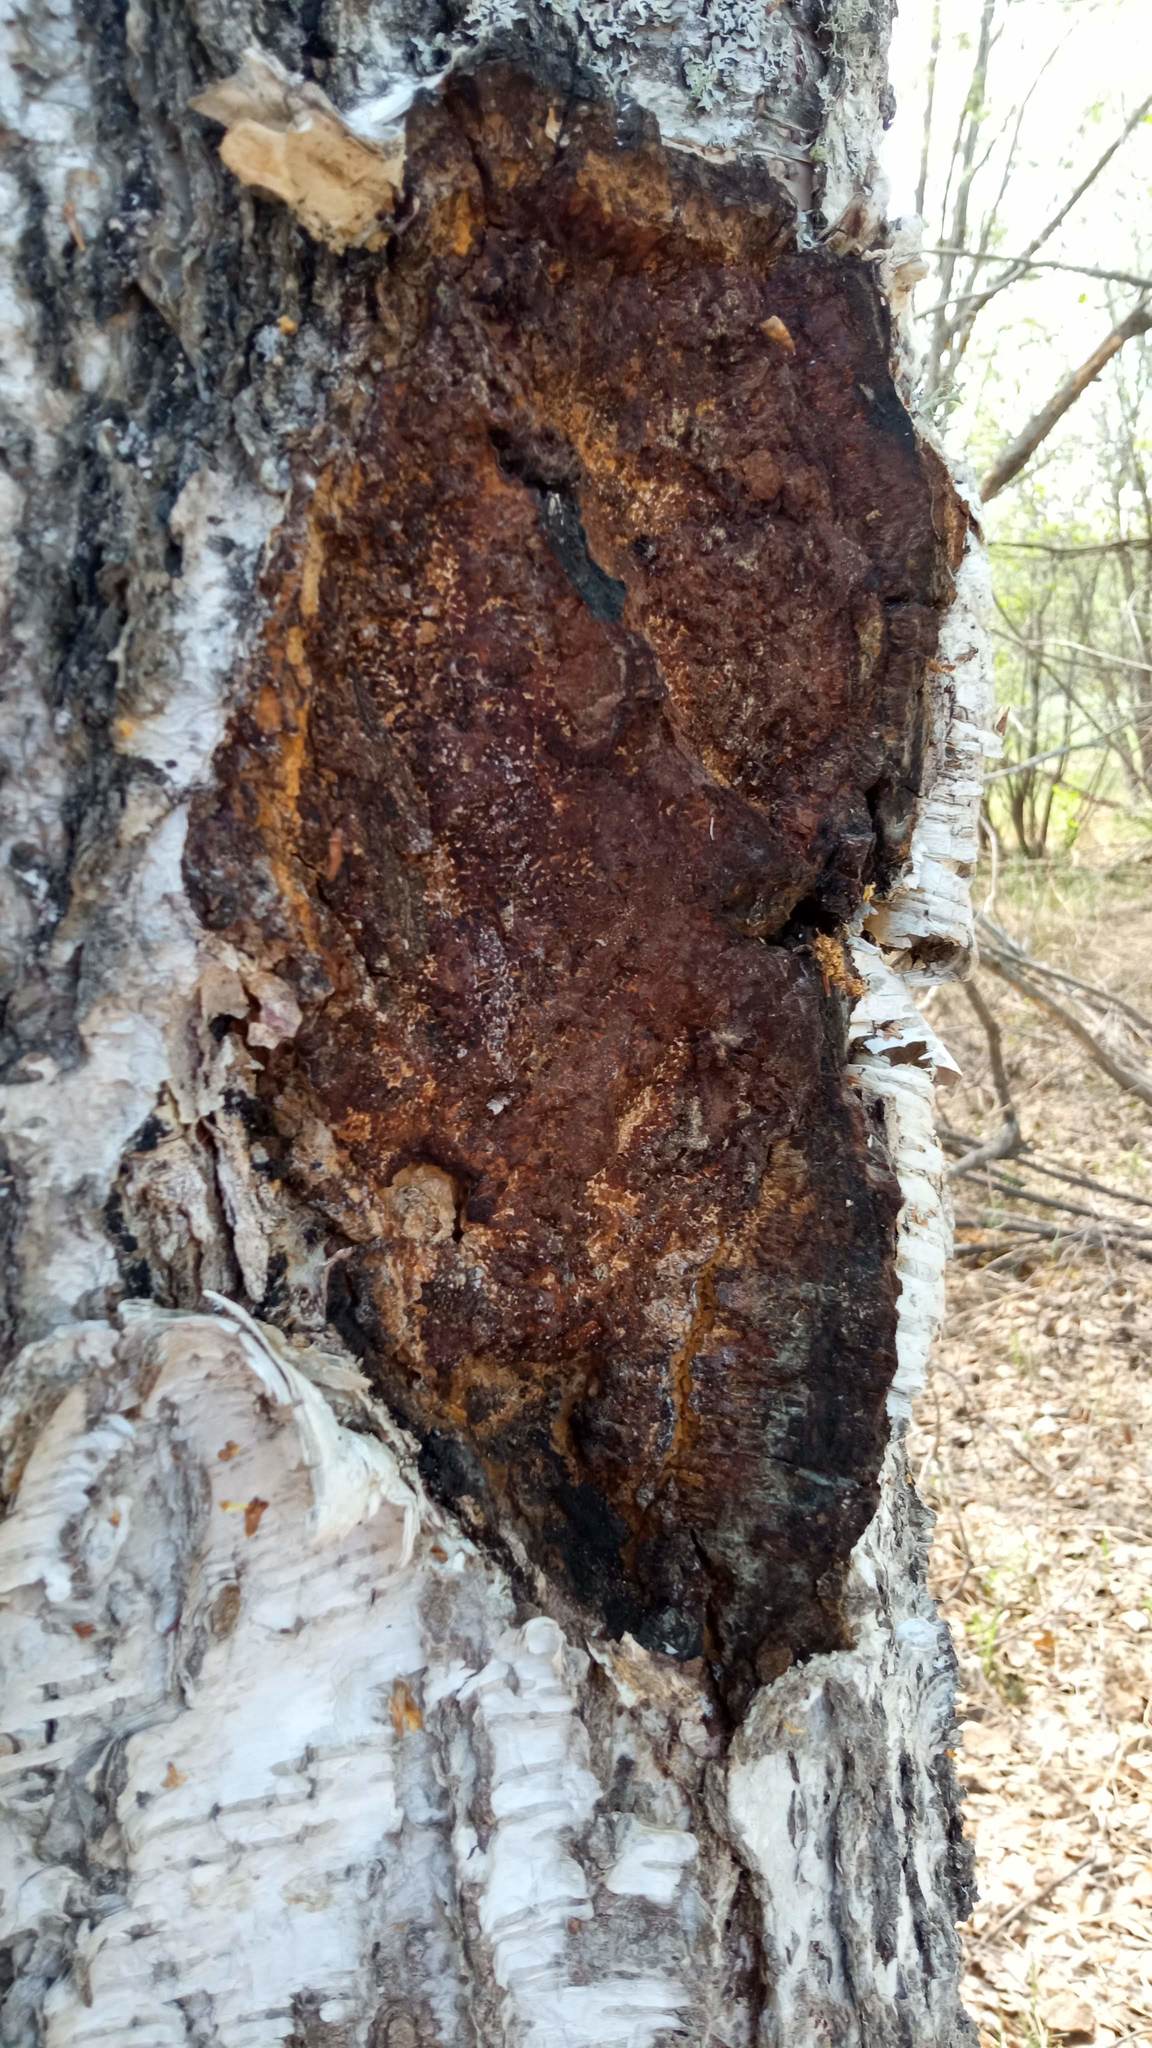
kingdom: Fungi
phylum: Basidiomycota
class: Agaricomycetes
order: Hymenochaetales
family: Hymenochaetaceae
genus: Inonotus
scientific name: Inonotus obliquus
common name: Chaga
